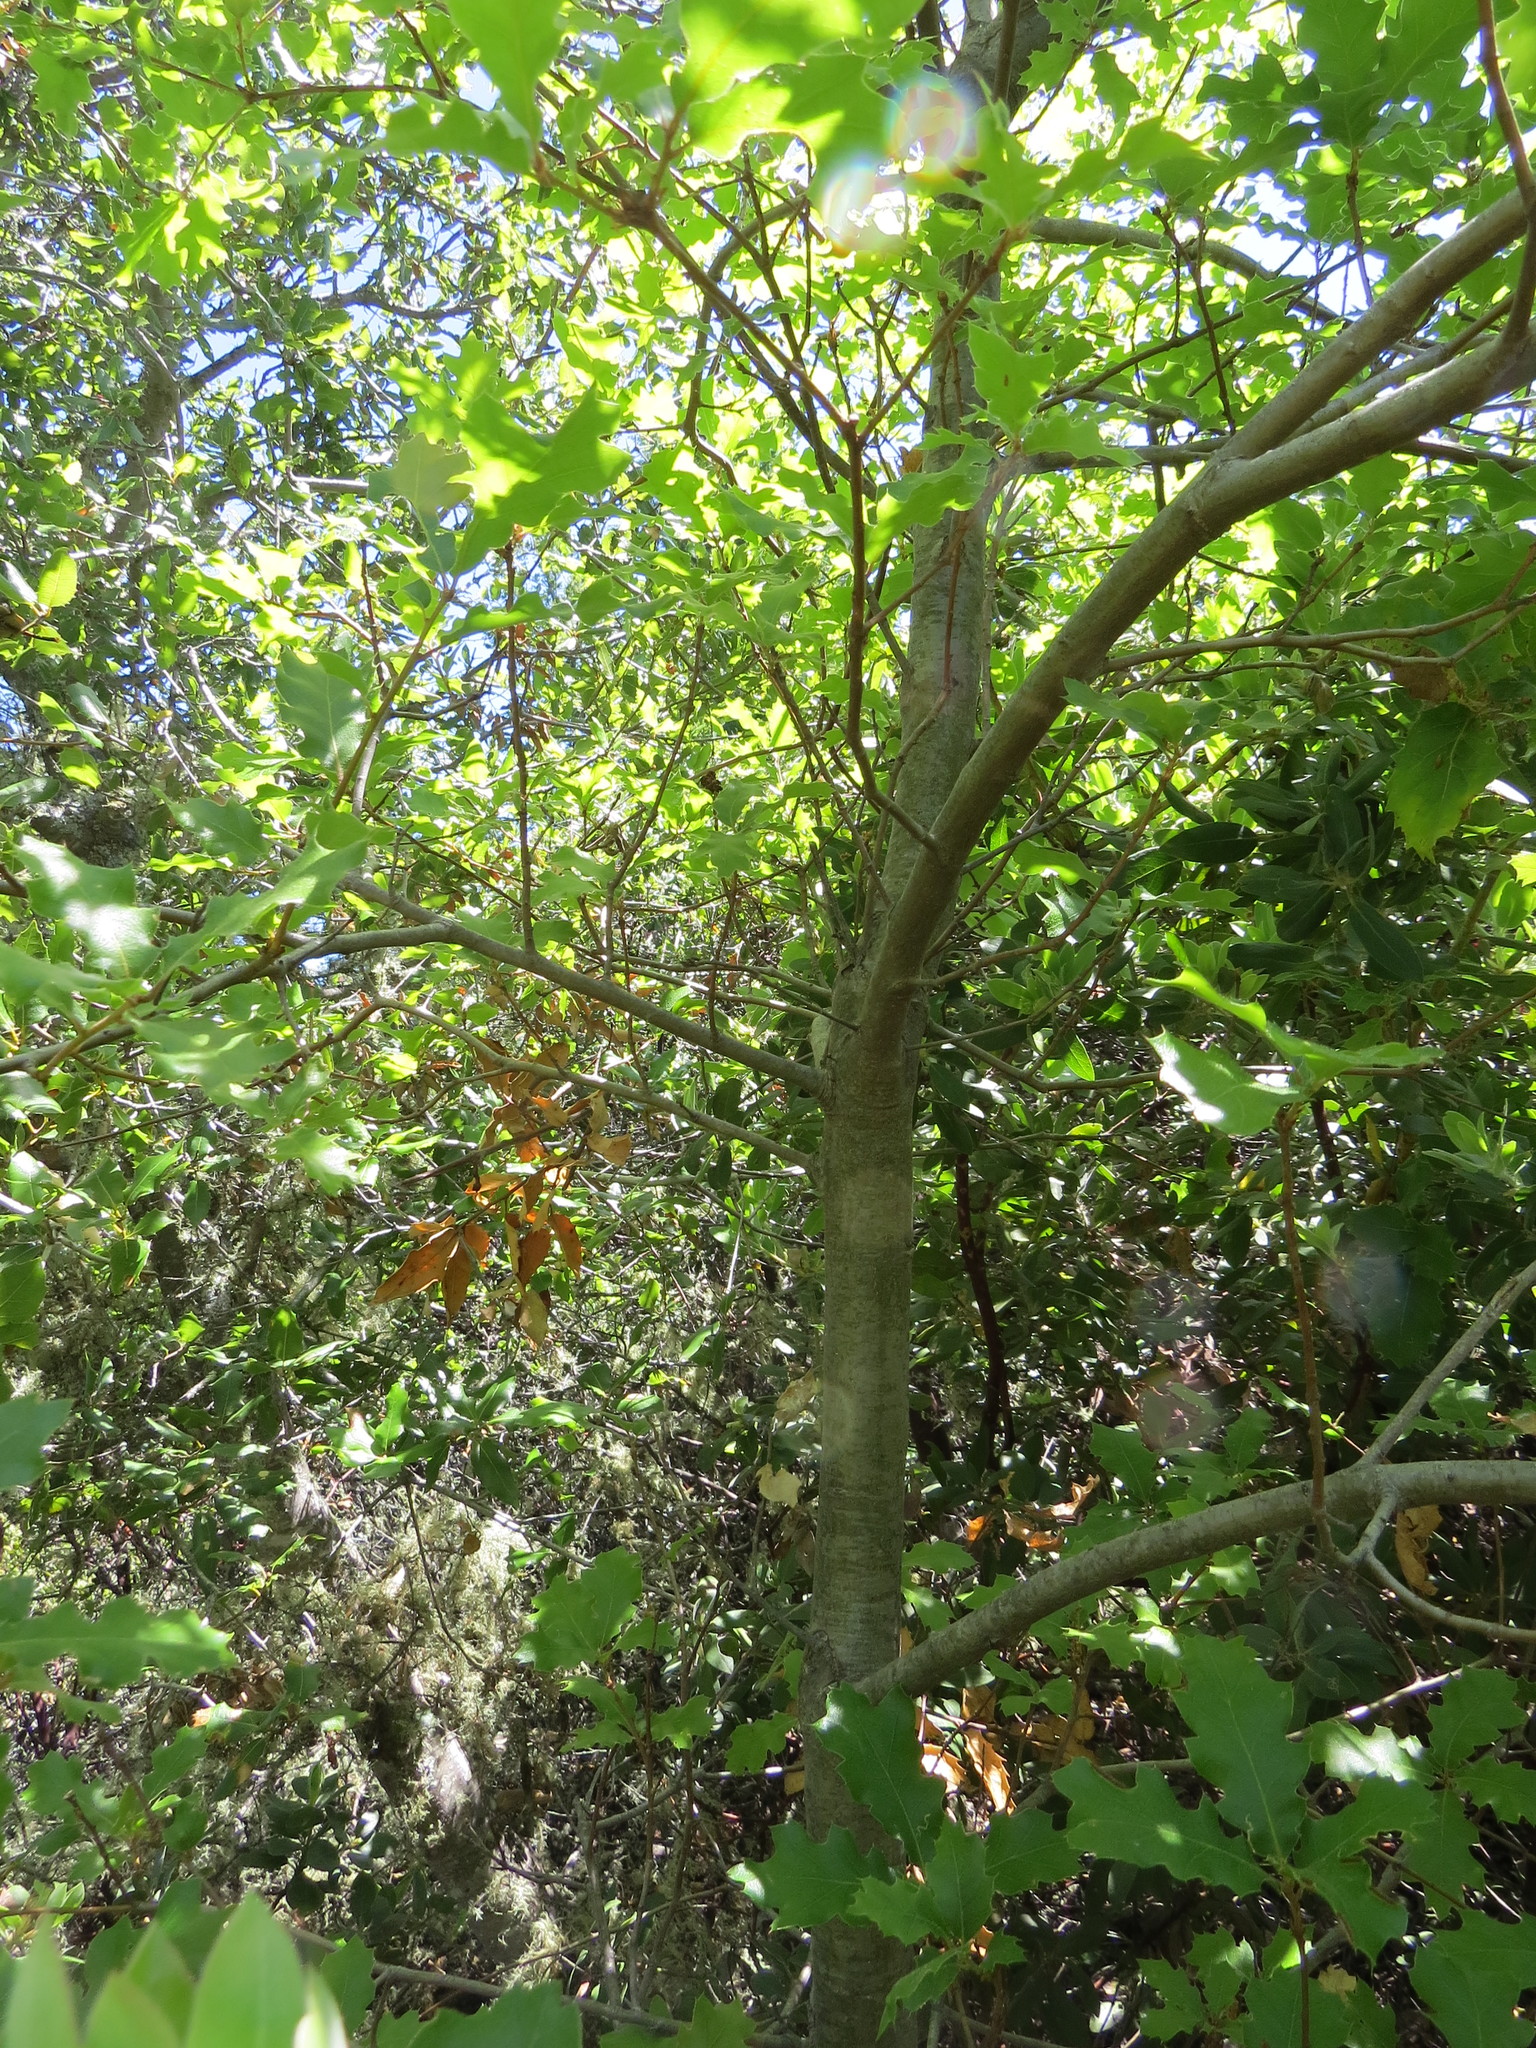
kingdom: Plantae
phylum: Tracheophyta
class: Magnoliopsida
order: Fagales
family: Fagaceae
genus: Quercus
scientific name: Quercus kelloggii
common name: California black oak
